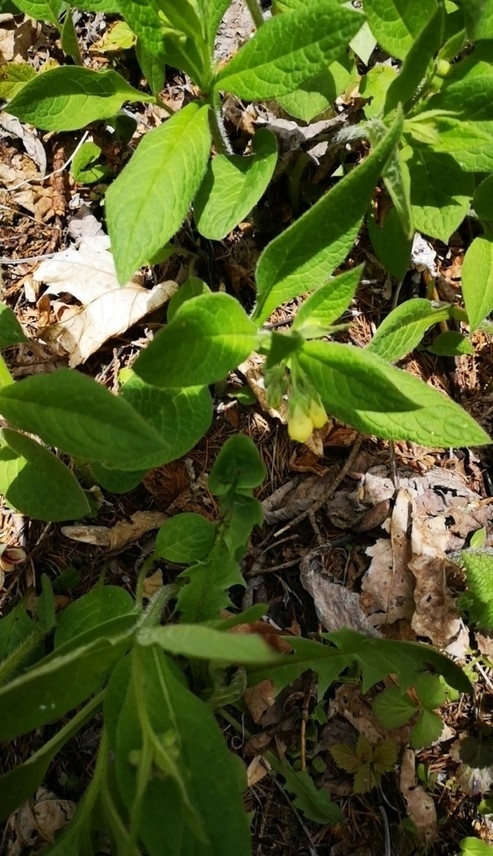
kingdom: Plantae
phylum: Tracheophyta
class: Magnoliopsida
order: Boraginales
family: Boraginaceae
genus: Symphytum
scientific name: Symphytum tuberosum
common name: Tuberous comfrey
